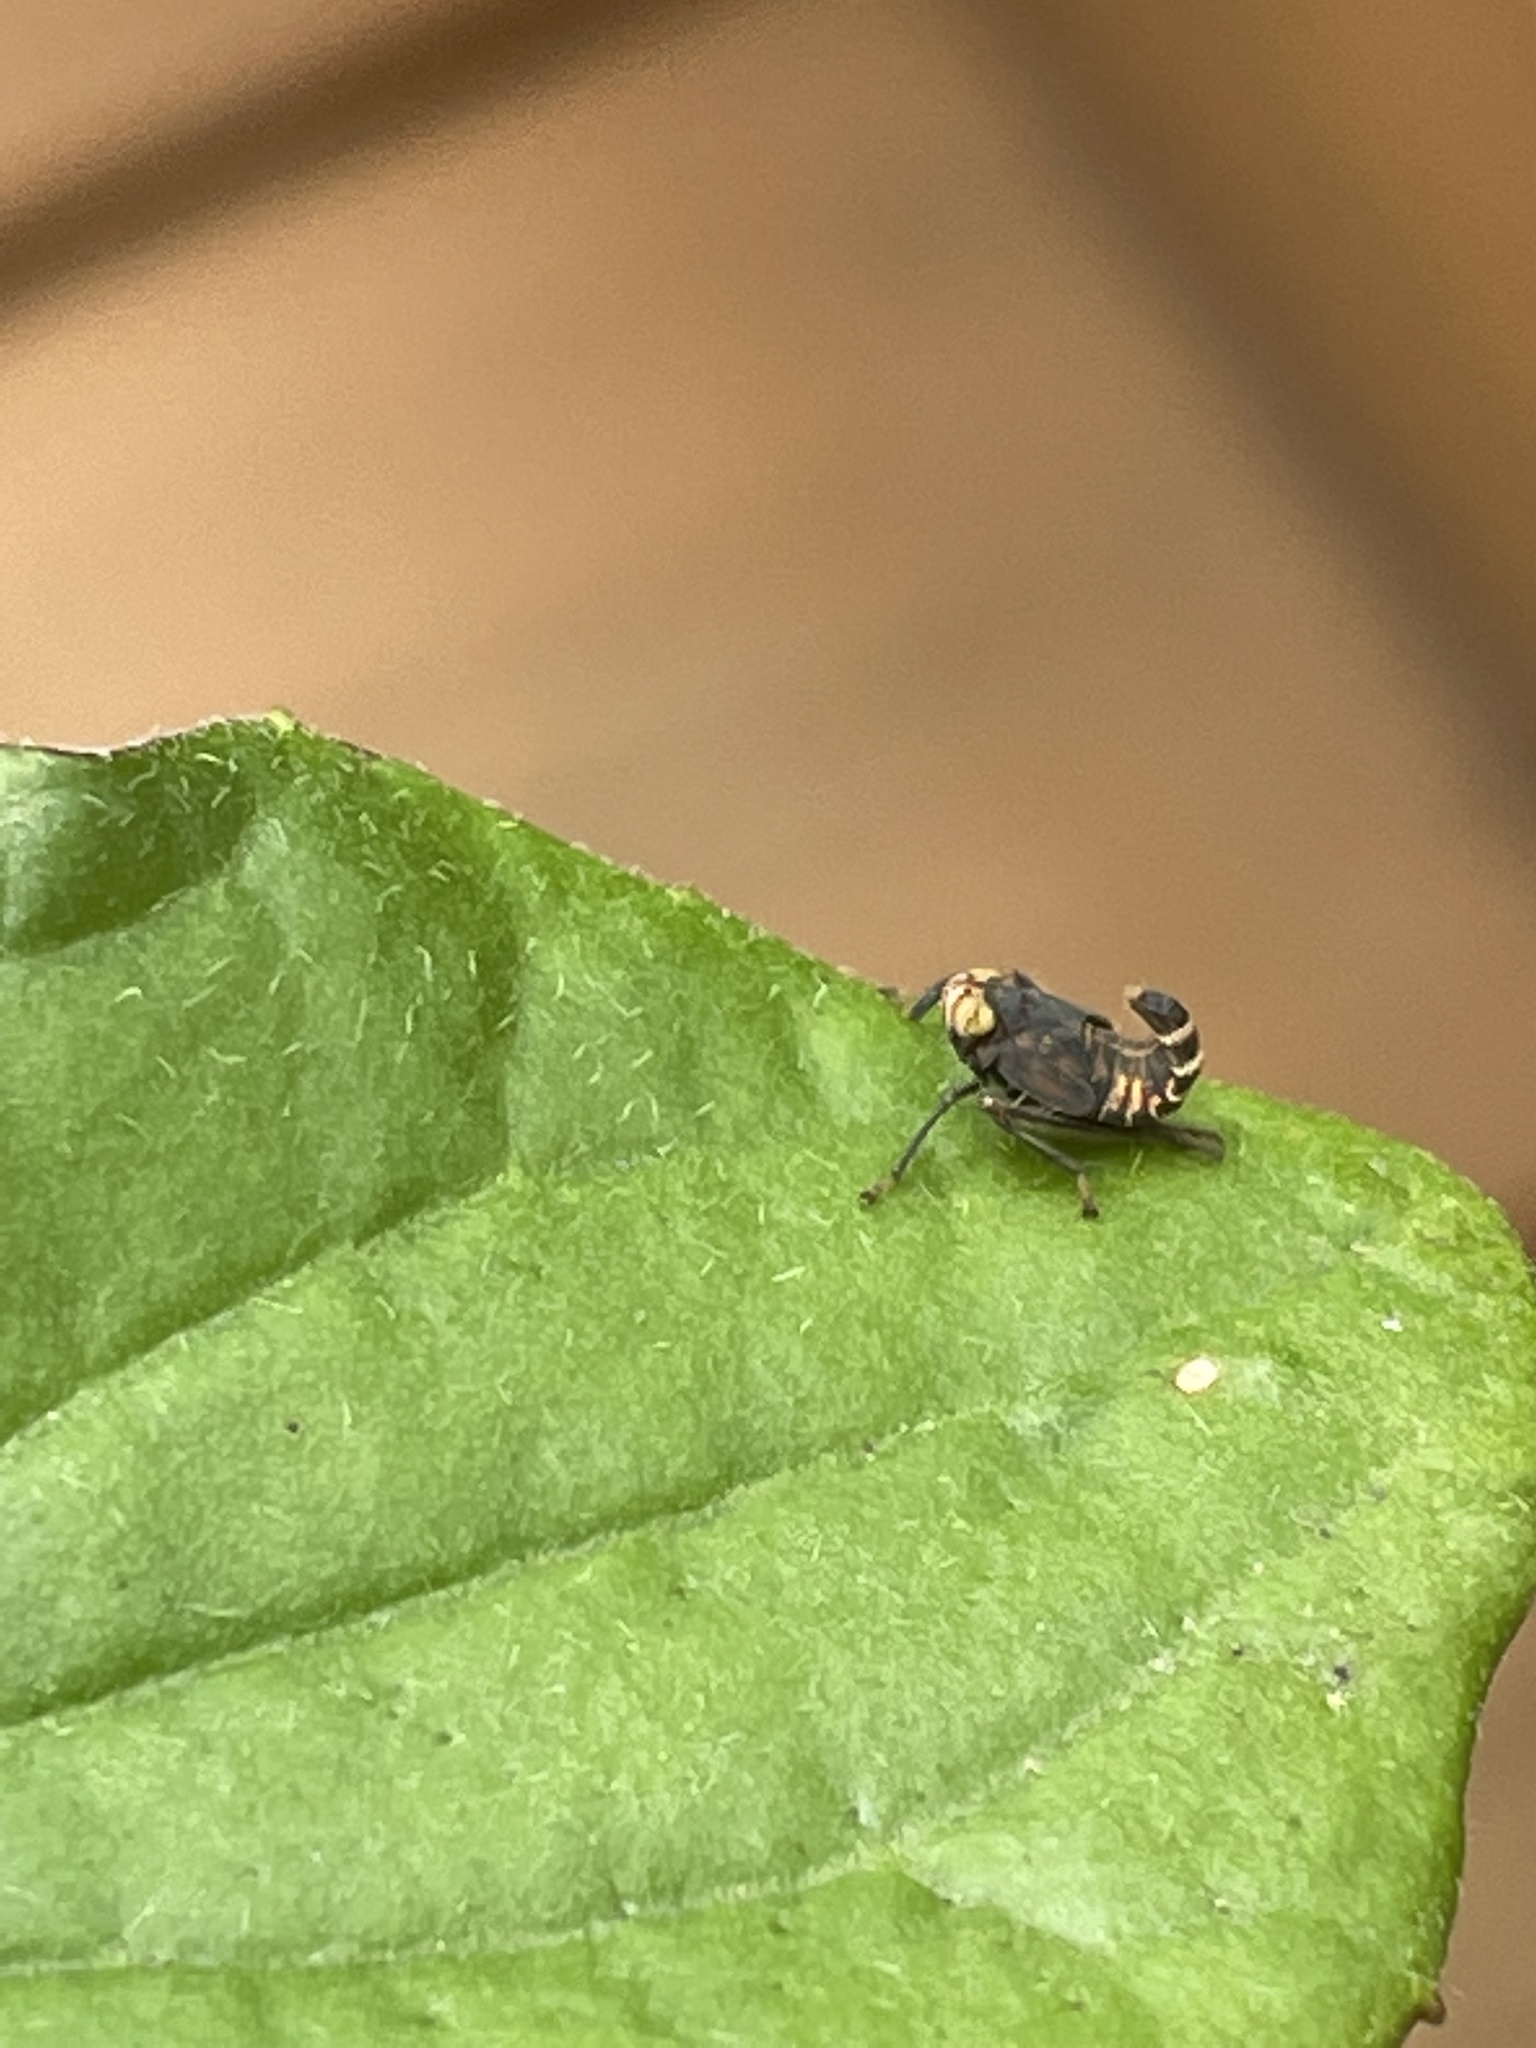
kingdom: Animalia
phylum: Arthropoda
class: Insecta
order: Hemiptera
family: Cicadellidae
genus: Jikradia
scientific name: Jikradia olitoria
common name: Coppery leafhopper
